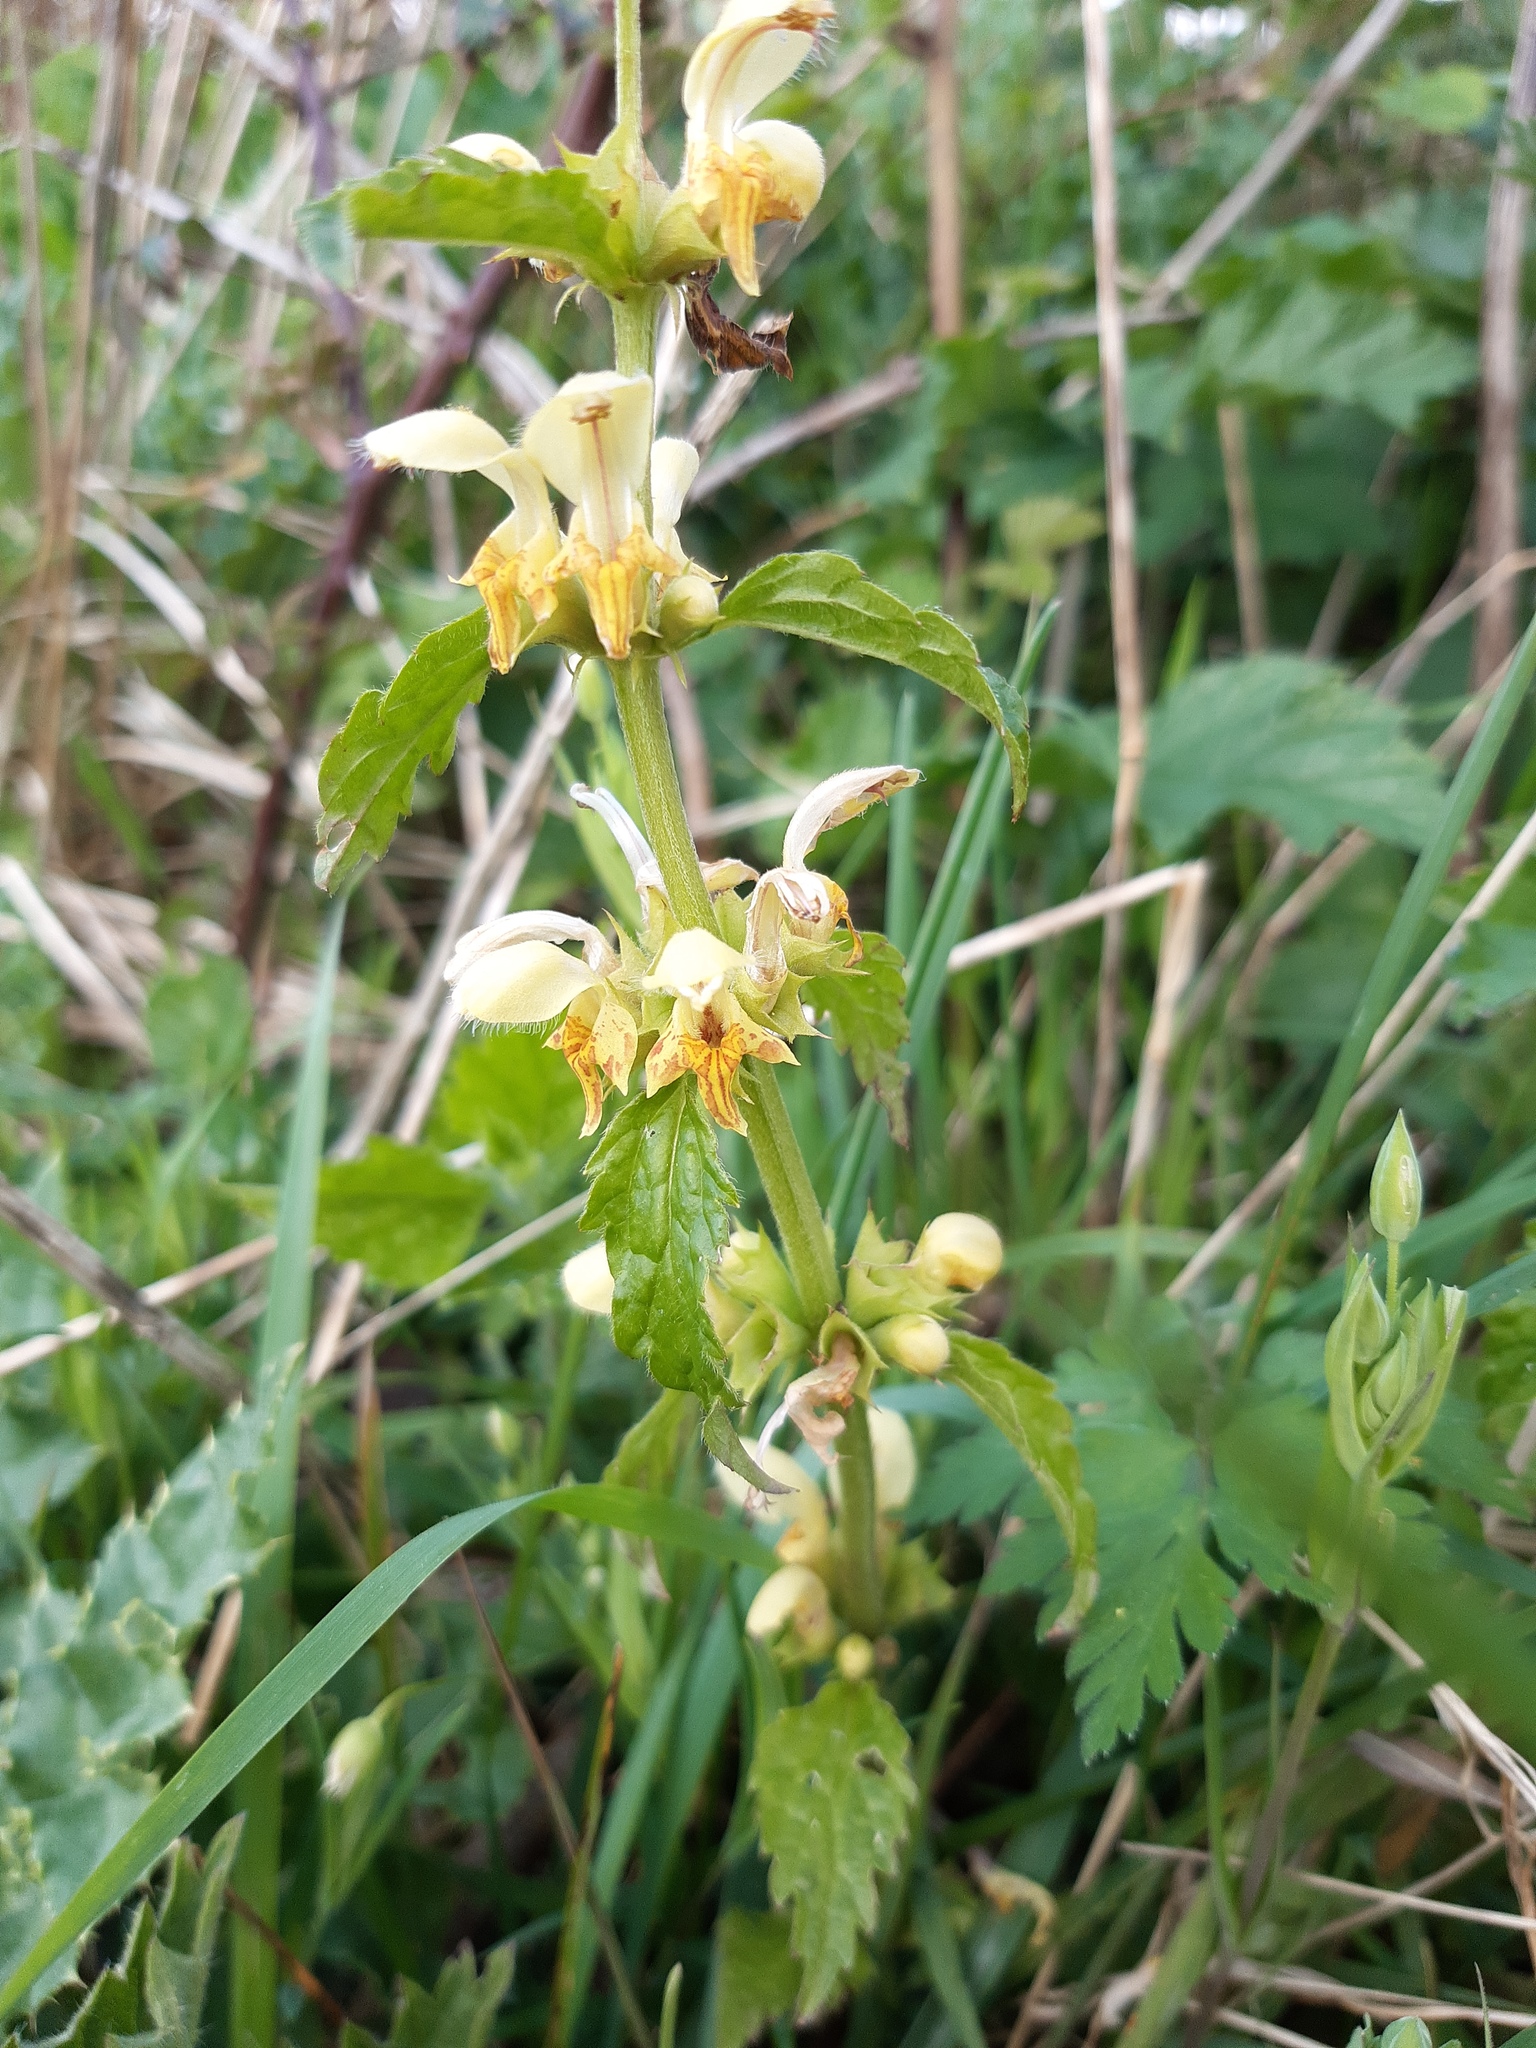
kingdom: Plantae
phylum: Tracheophyta
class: Magnoliopsida
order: Lamiales
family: Lamiaceae
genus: Lamium
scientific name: Lamium galeobdolon
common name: Yellow archangel
